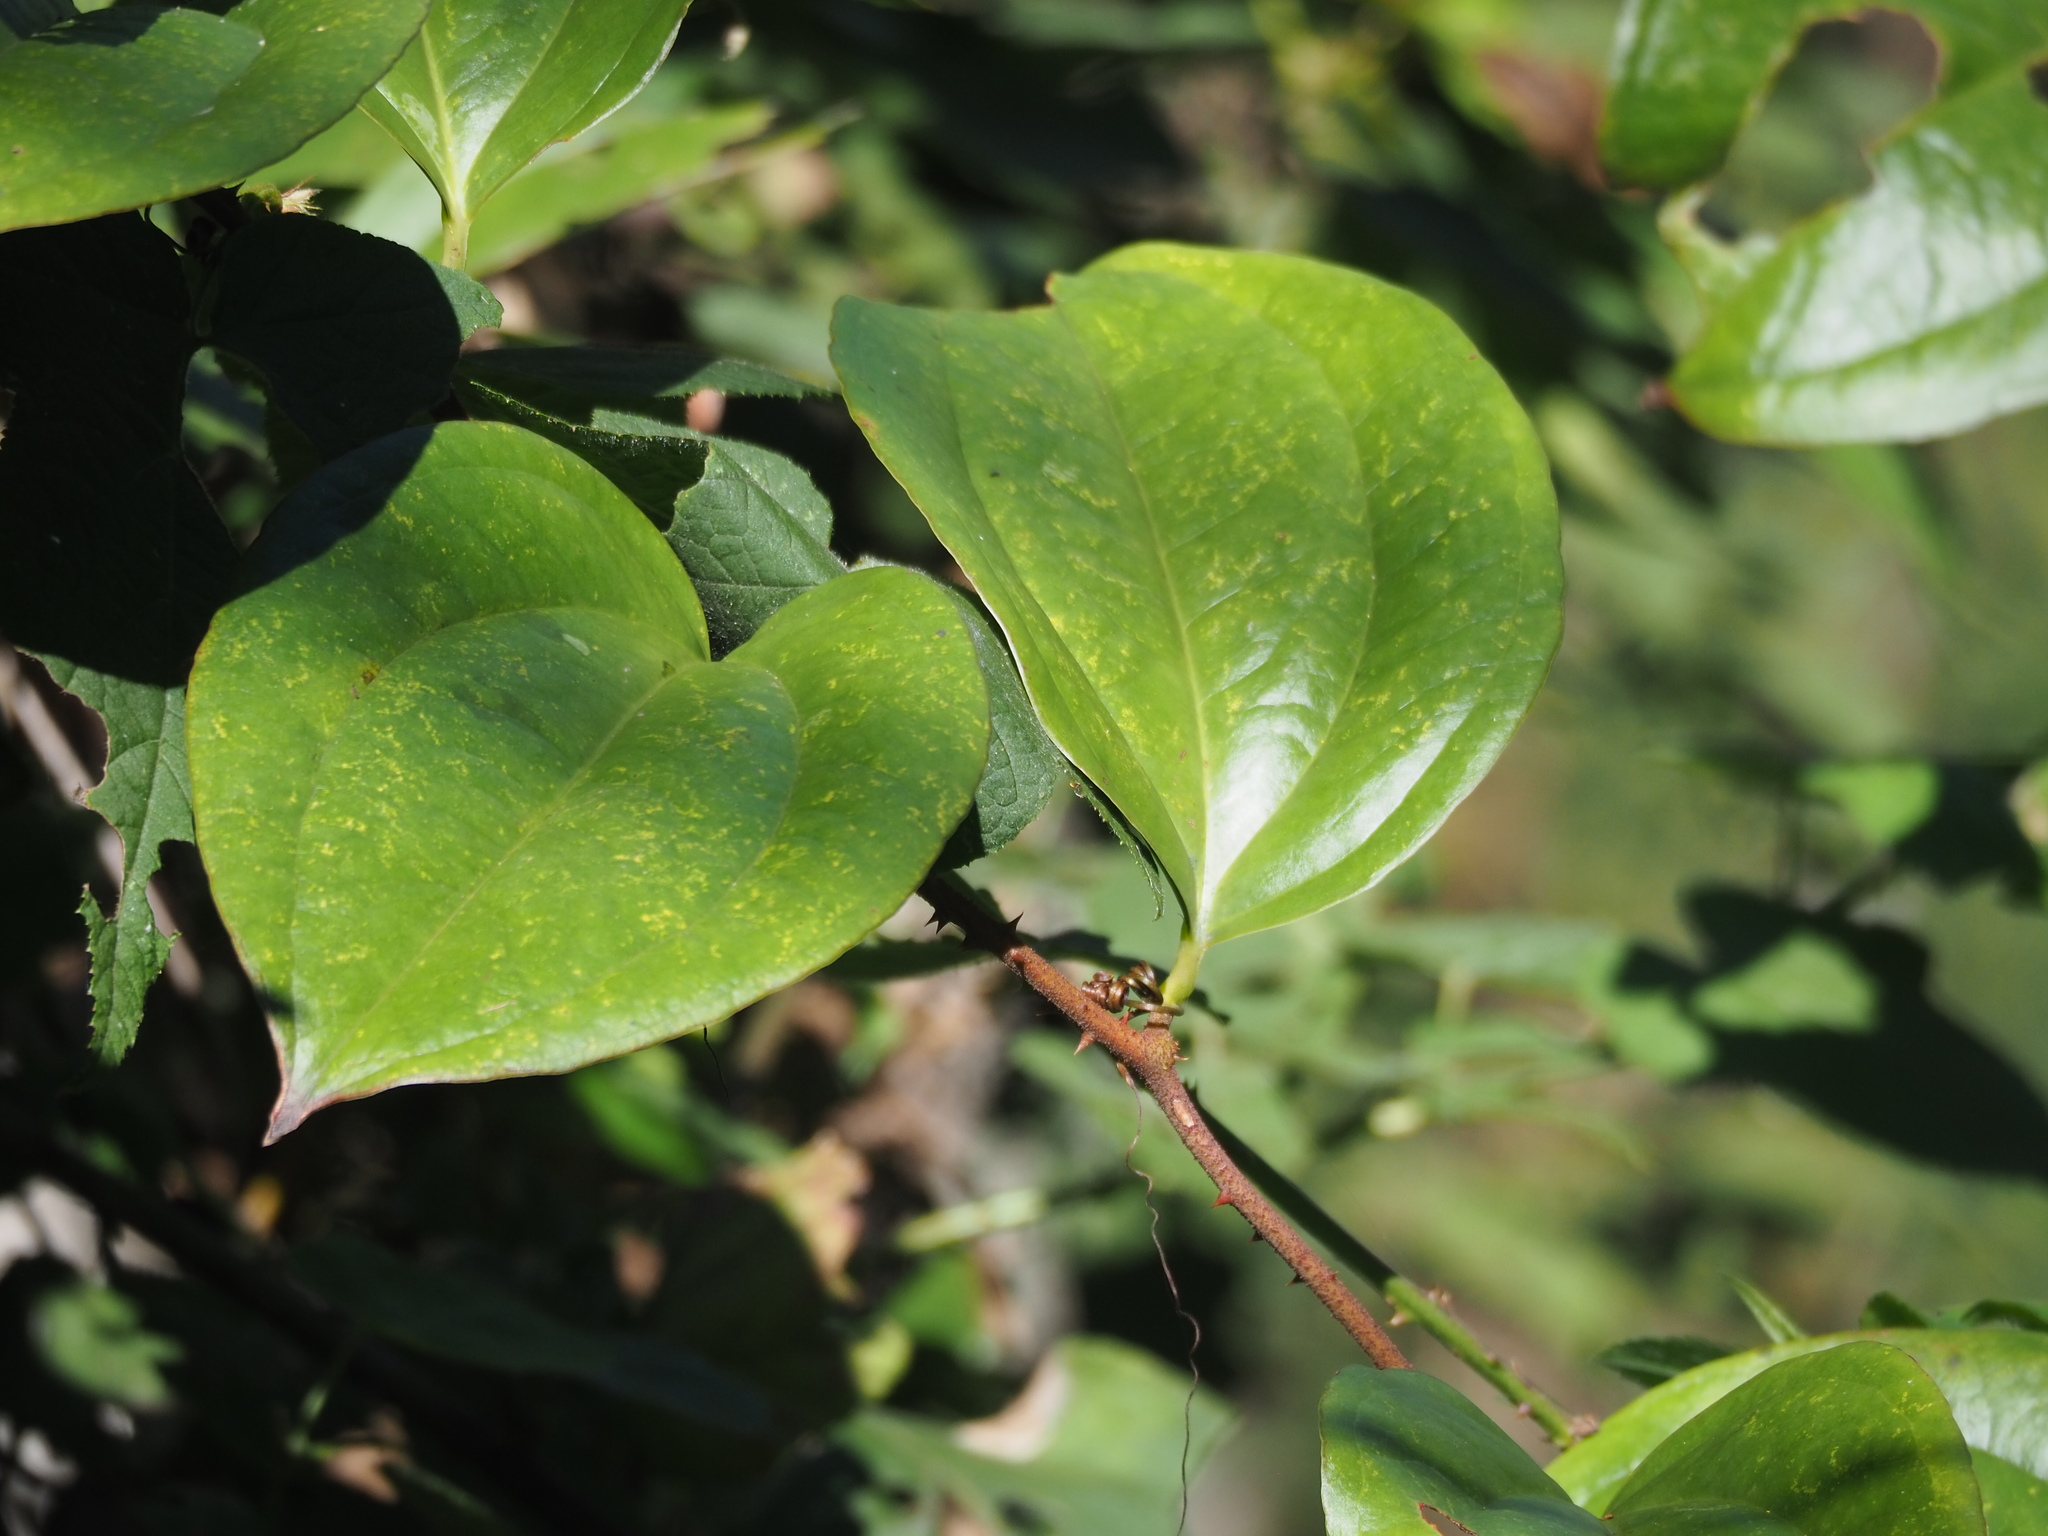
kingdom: Plantae
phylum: Tracheophyta
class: Liliopsida
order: Liliales
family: Smilacaceae
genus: Smilax
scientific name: Smilax aspericaulis
